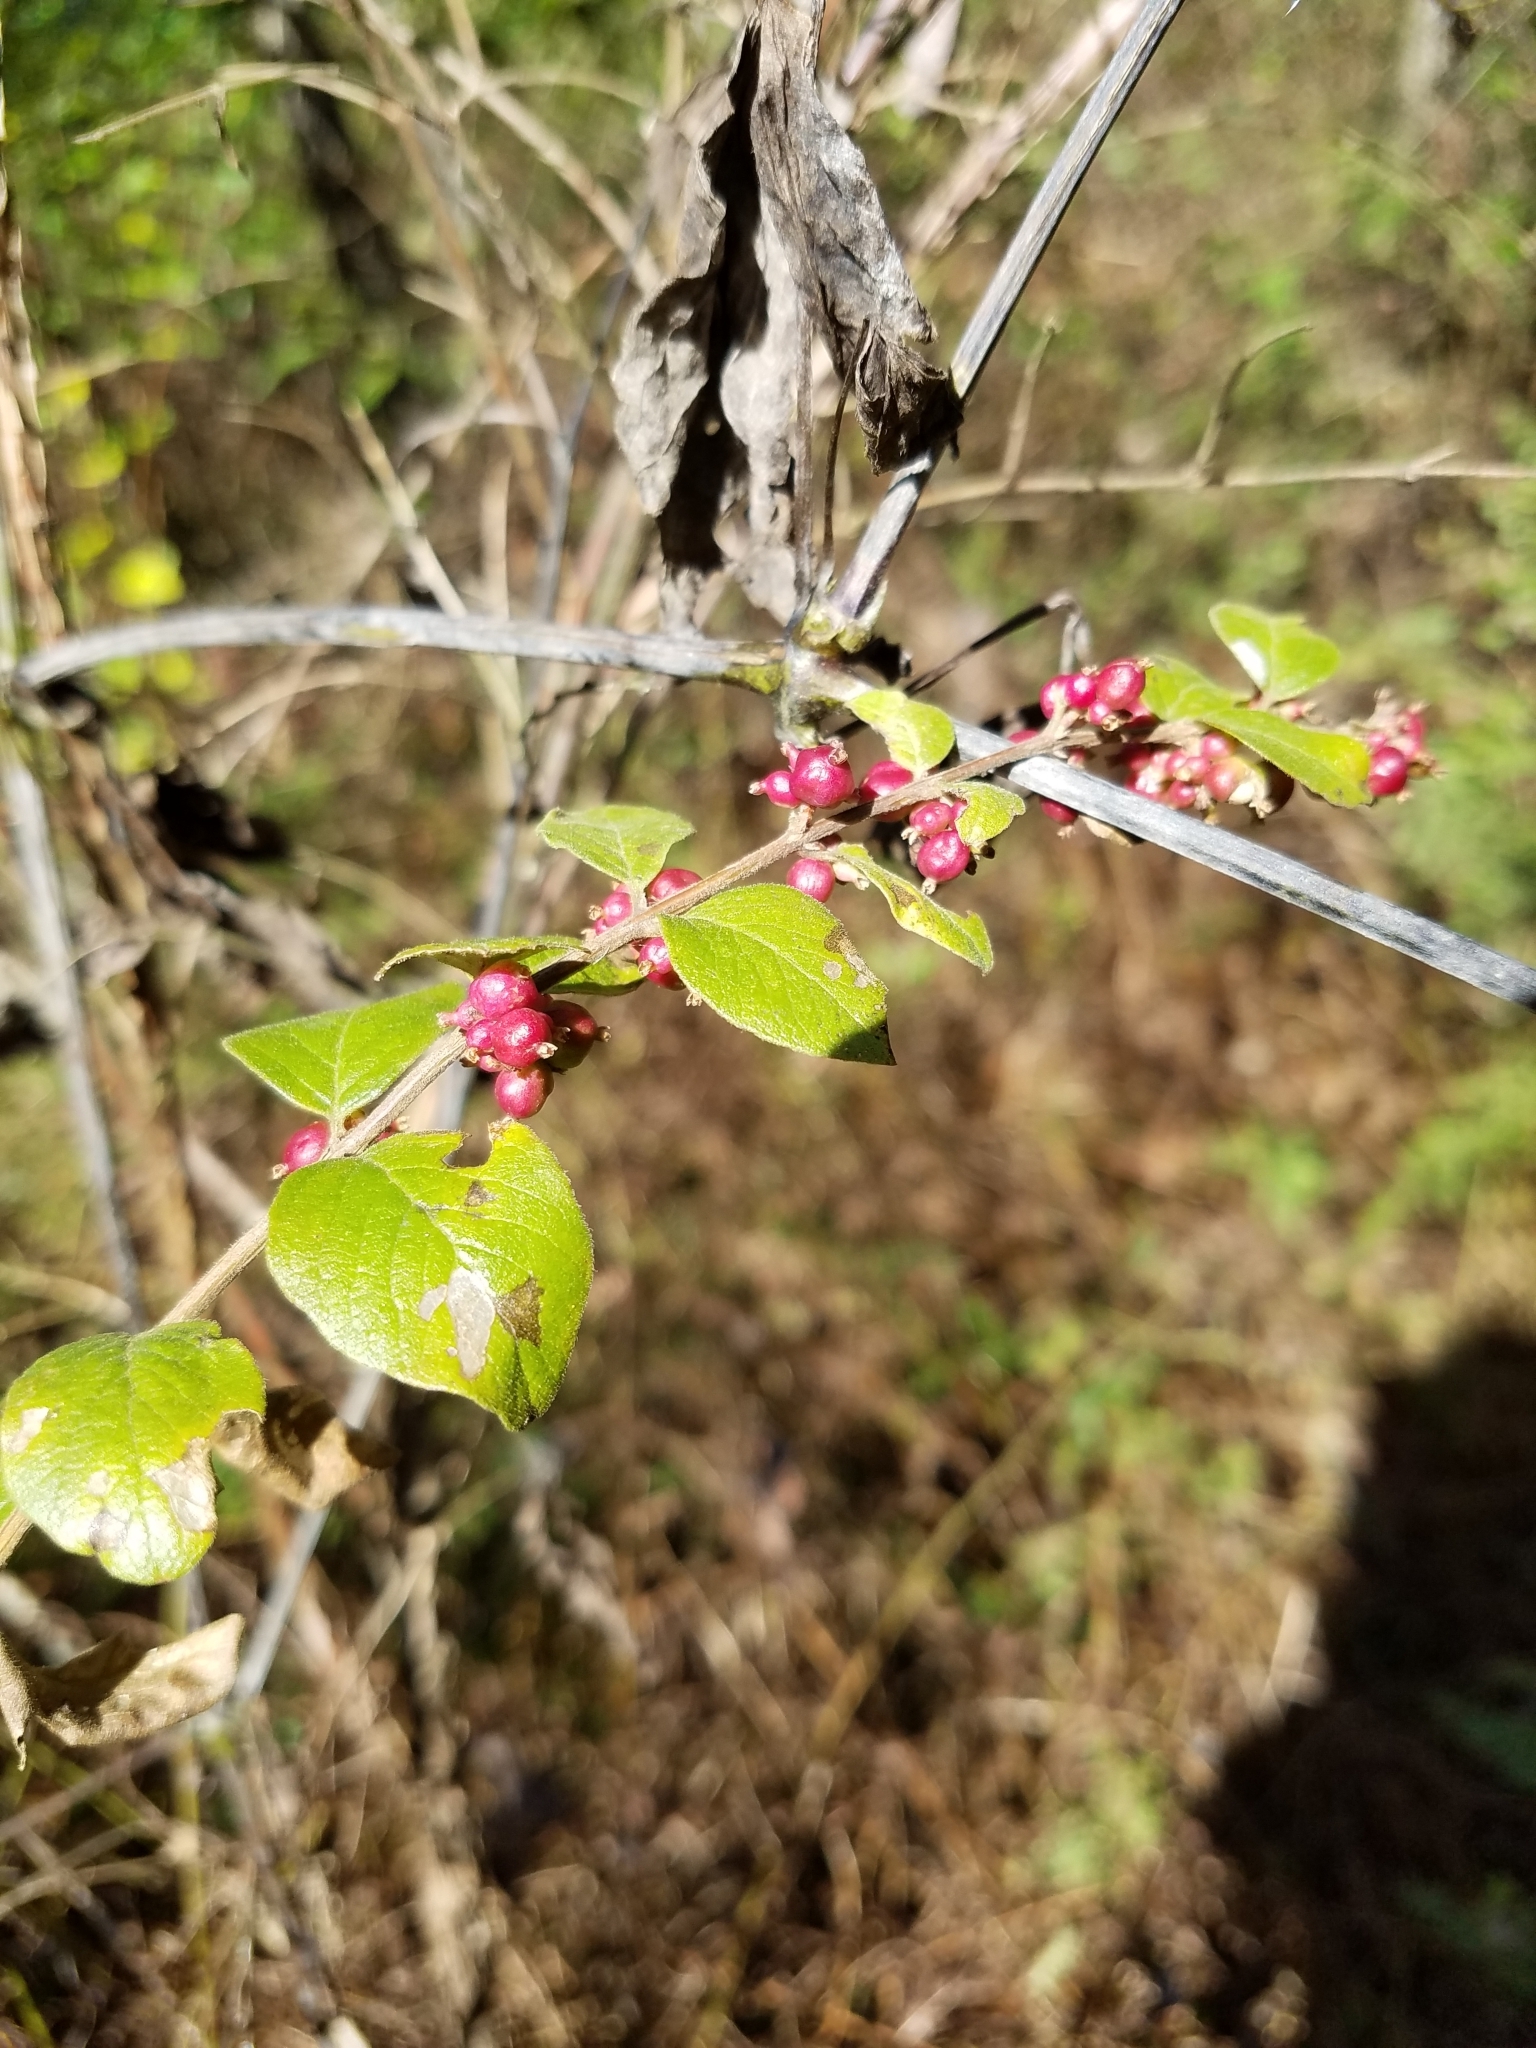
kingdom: Plantae
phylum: Tracheophyta
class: Magnoliopsida
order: Dipsacales
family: Caprifoliaceae
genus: Symphoricarpos
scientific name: Symphoricarpos orbiculatus
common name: Coralberry
